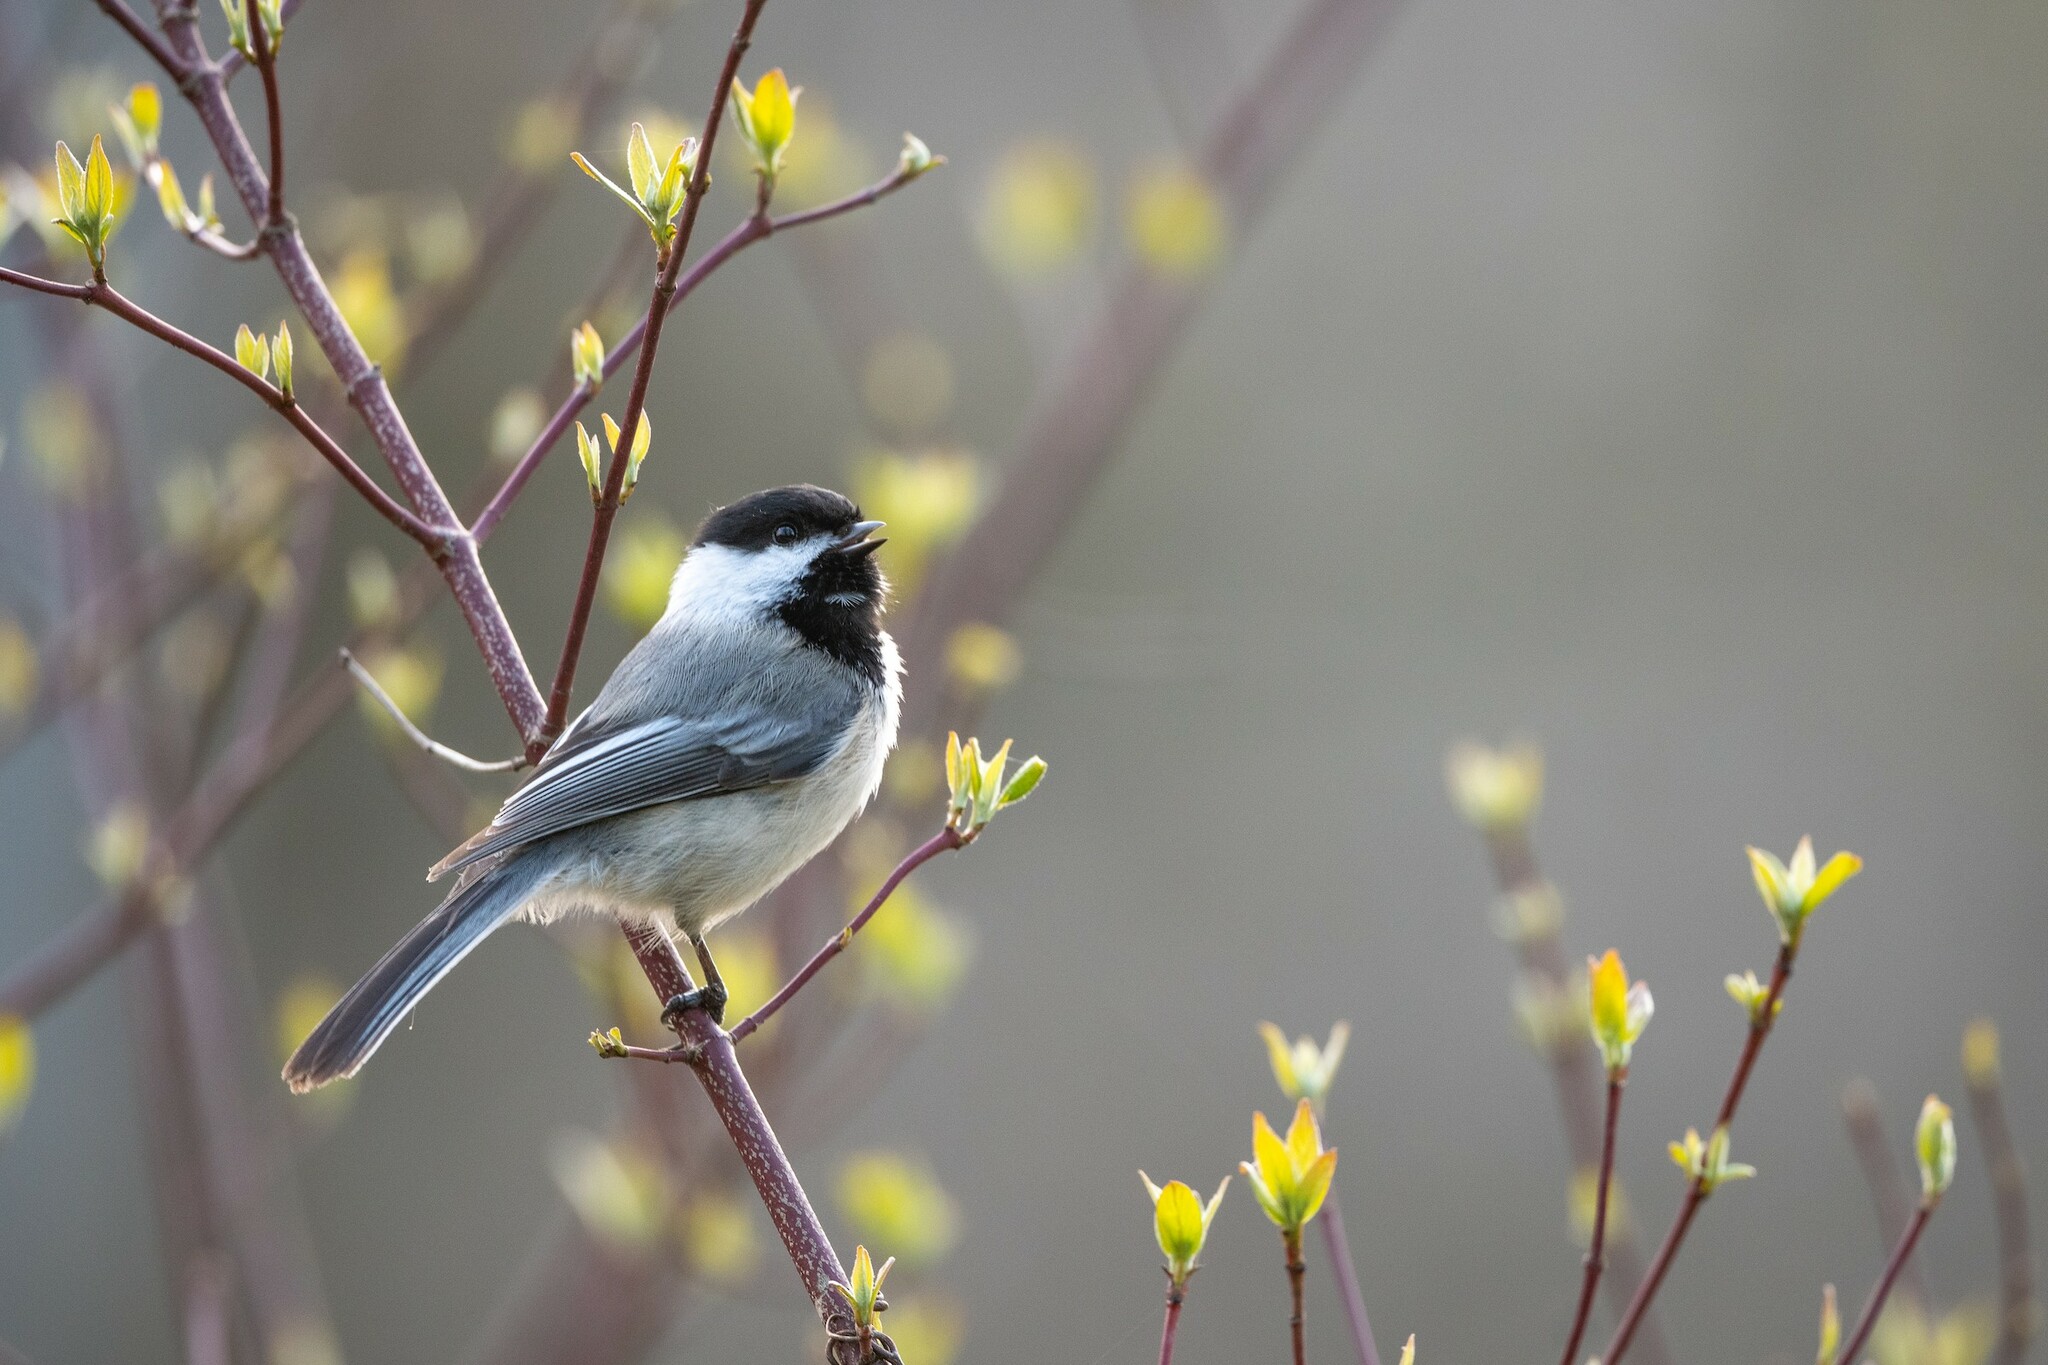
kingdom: Animalia
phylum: Chordata
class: Aves
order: Passeriformes
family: Paridae
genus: Poecile
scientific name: Poecile atricapillus
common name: Black-capped chickadee
